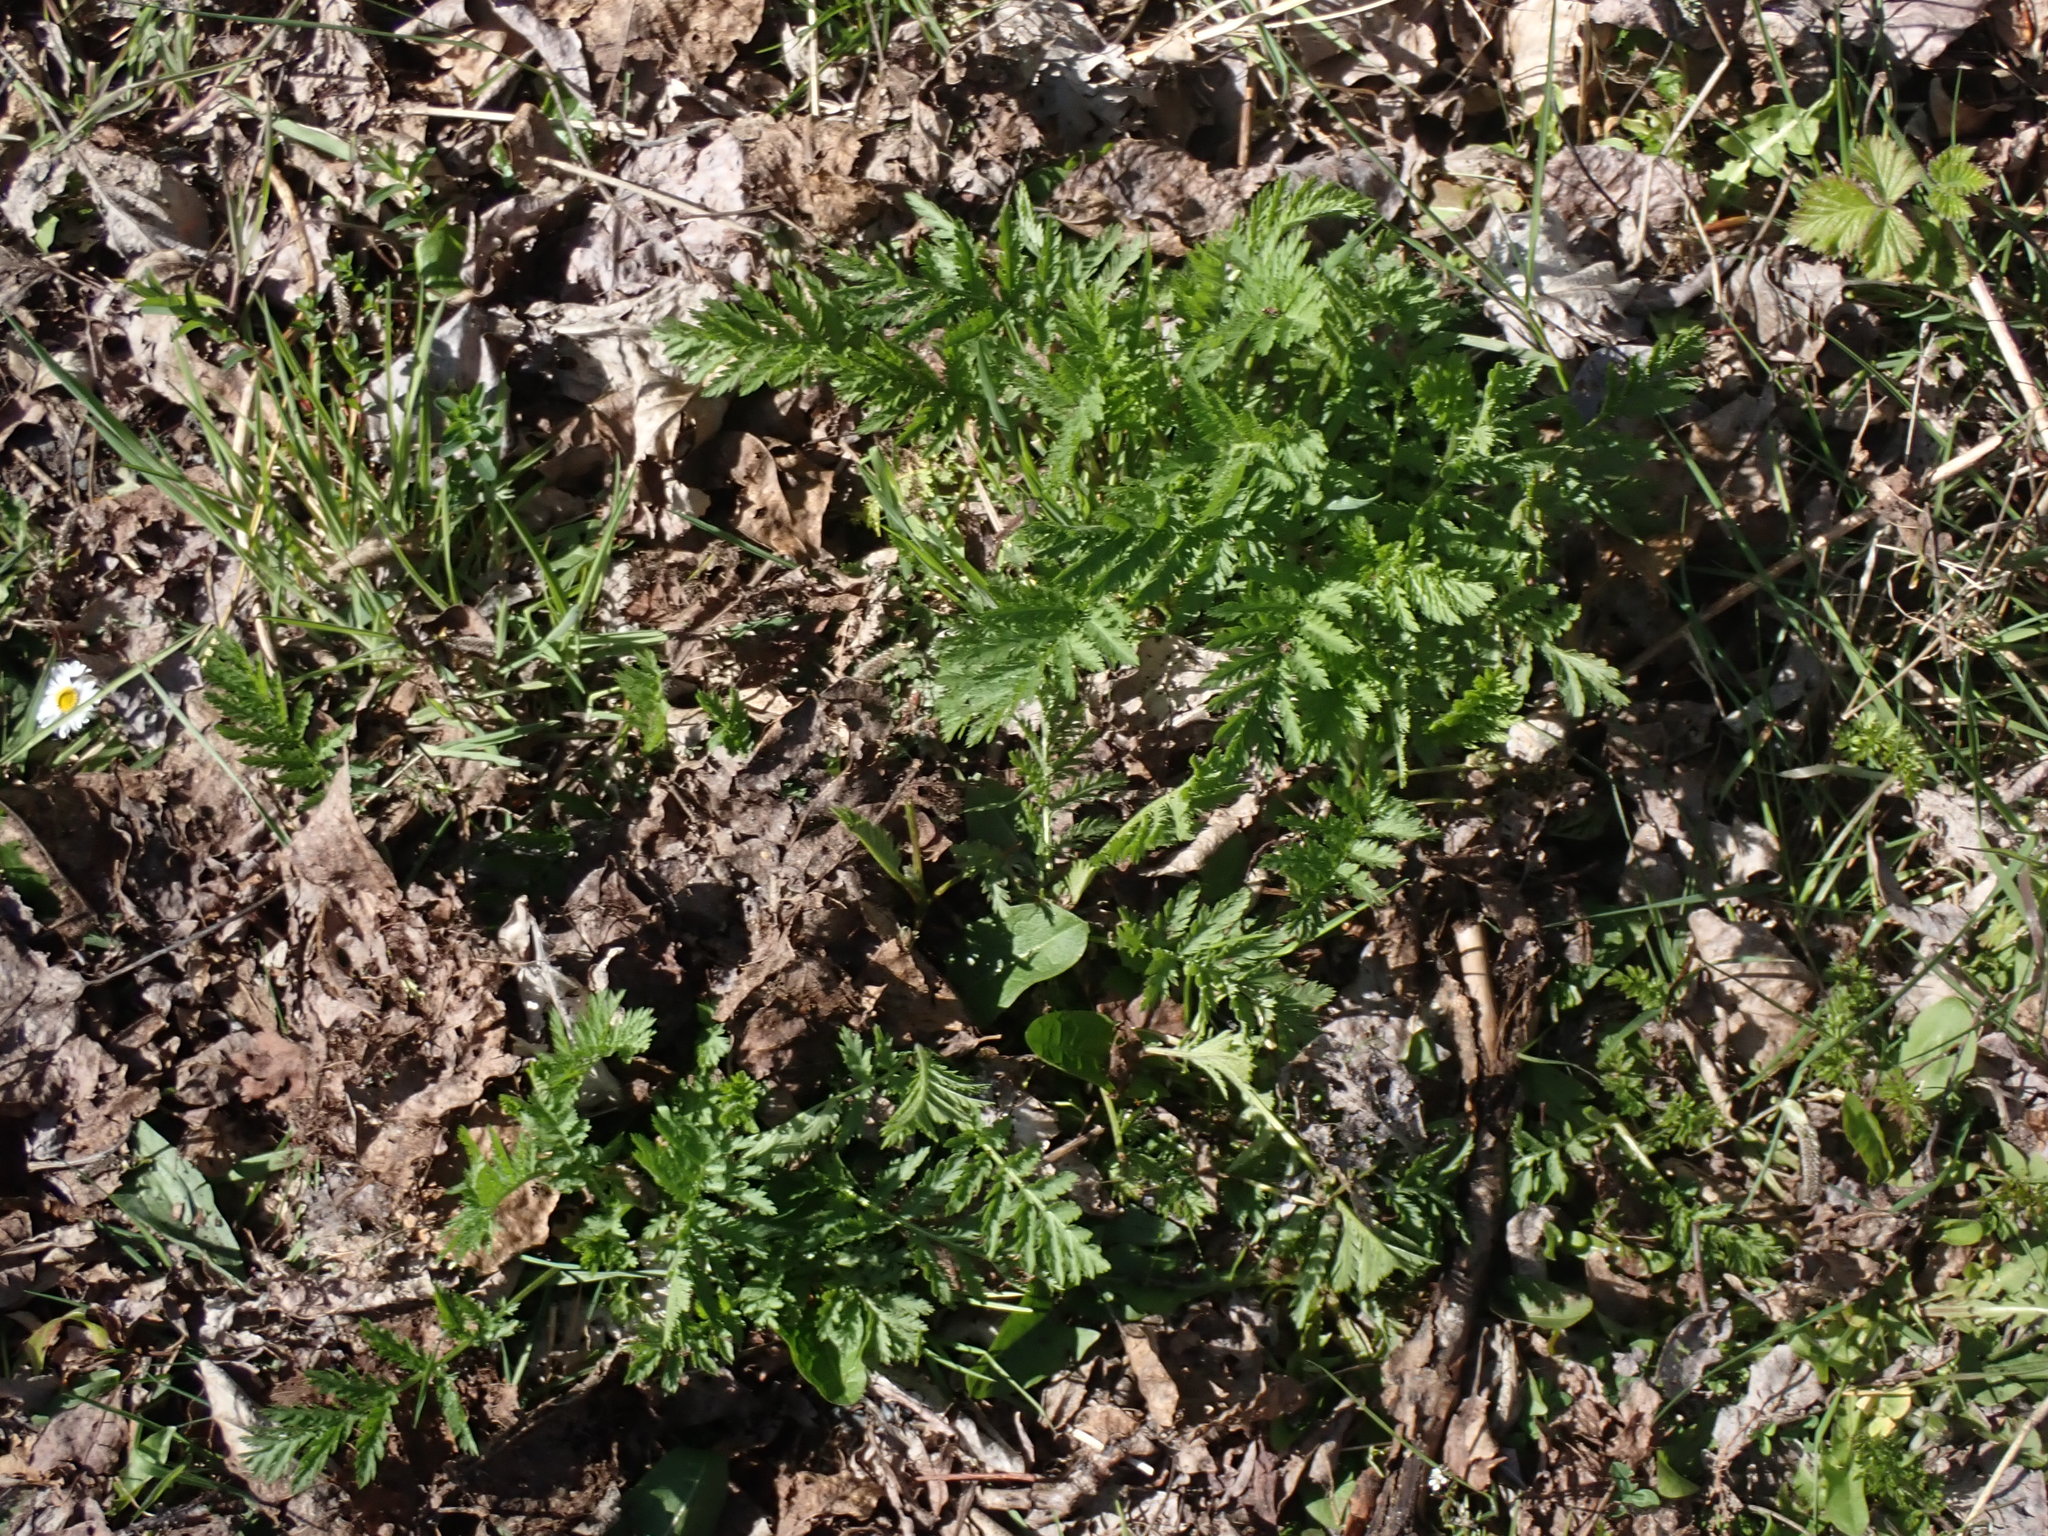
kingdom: Plantae
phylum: Tracheophyta
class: Magnoliopsida
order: Asterales
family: Asteraceae
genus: Tanacetum
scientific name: Tanacetum vulgare
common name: Common tansy
